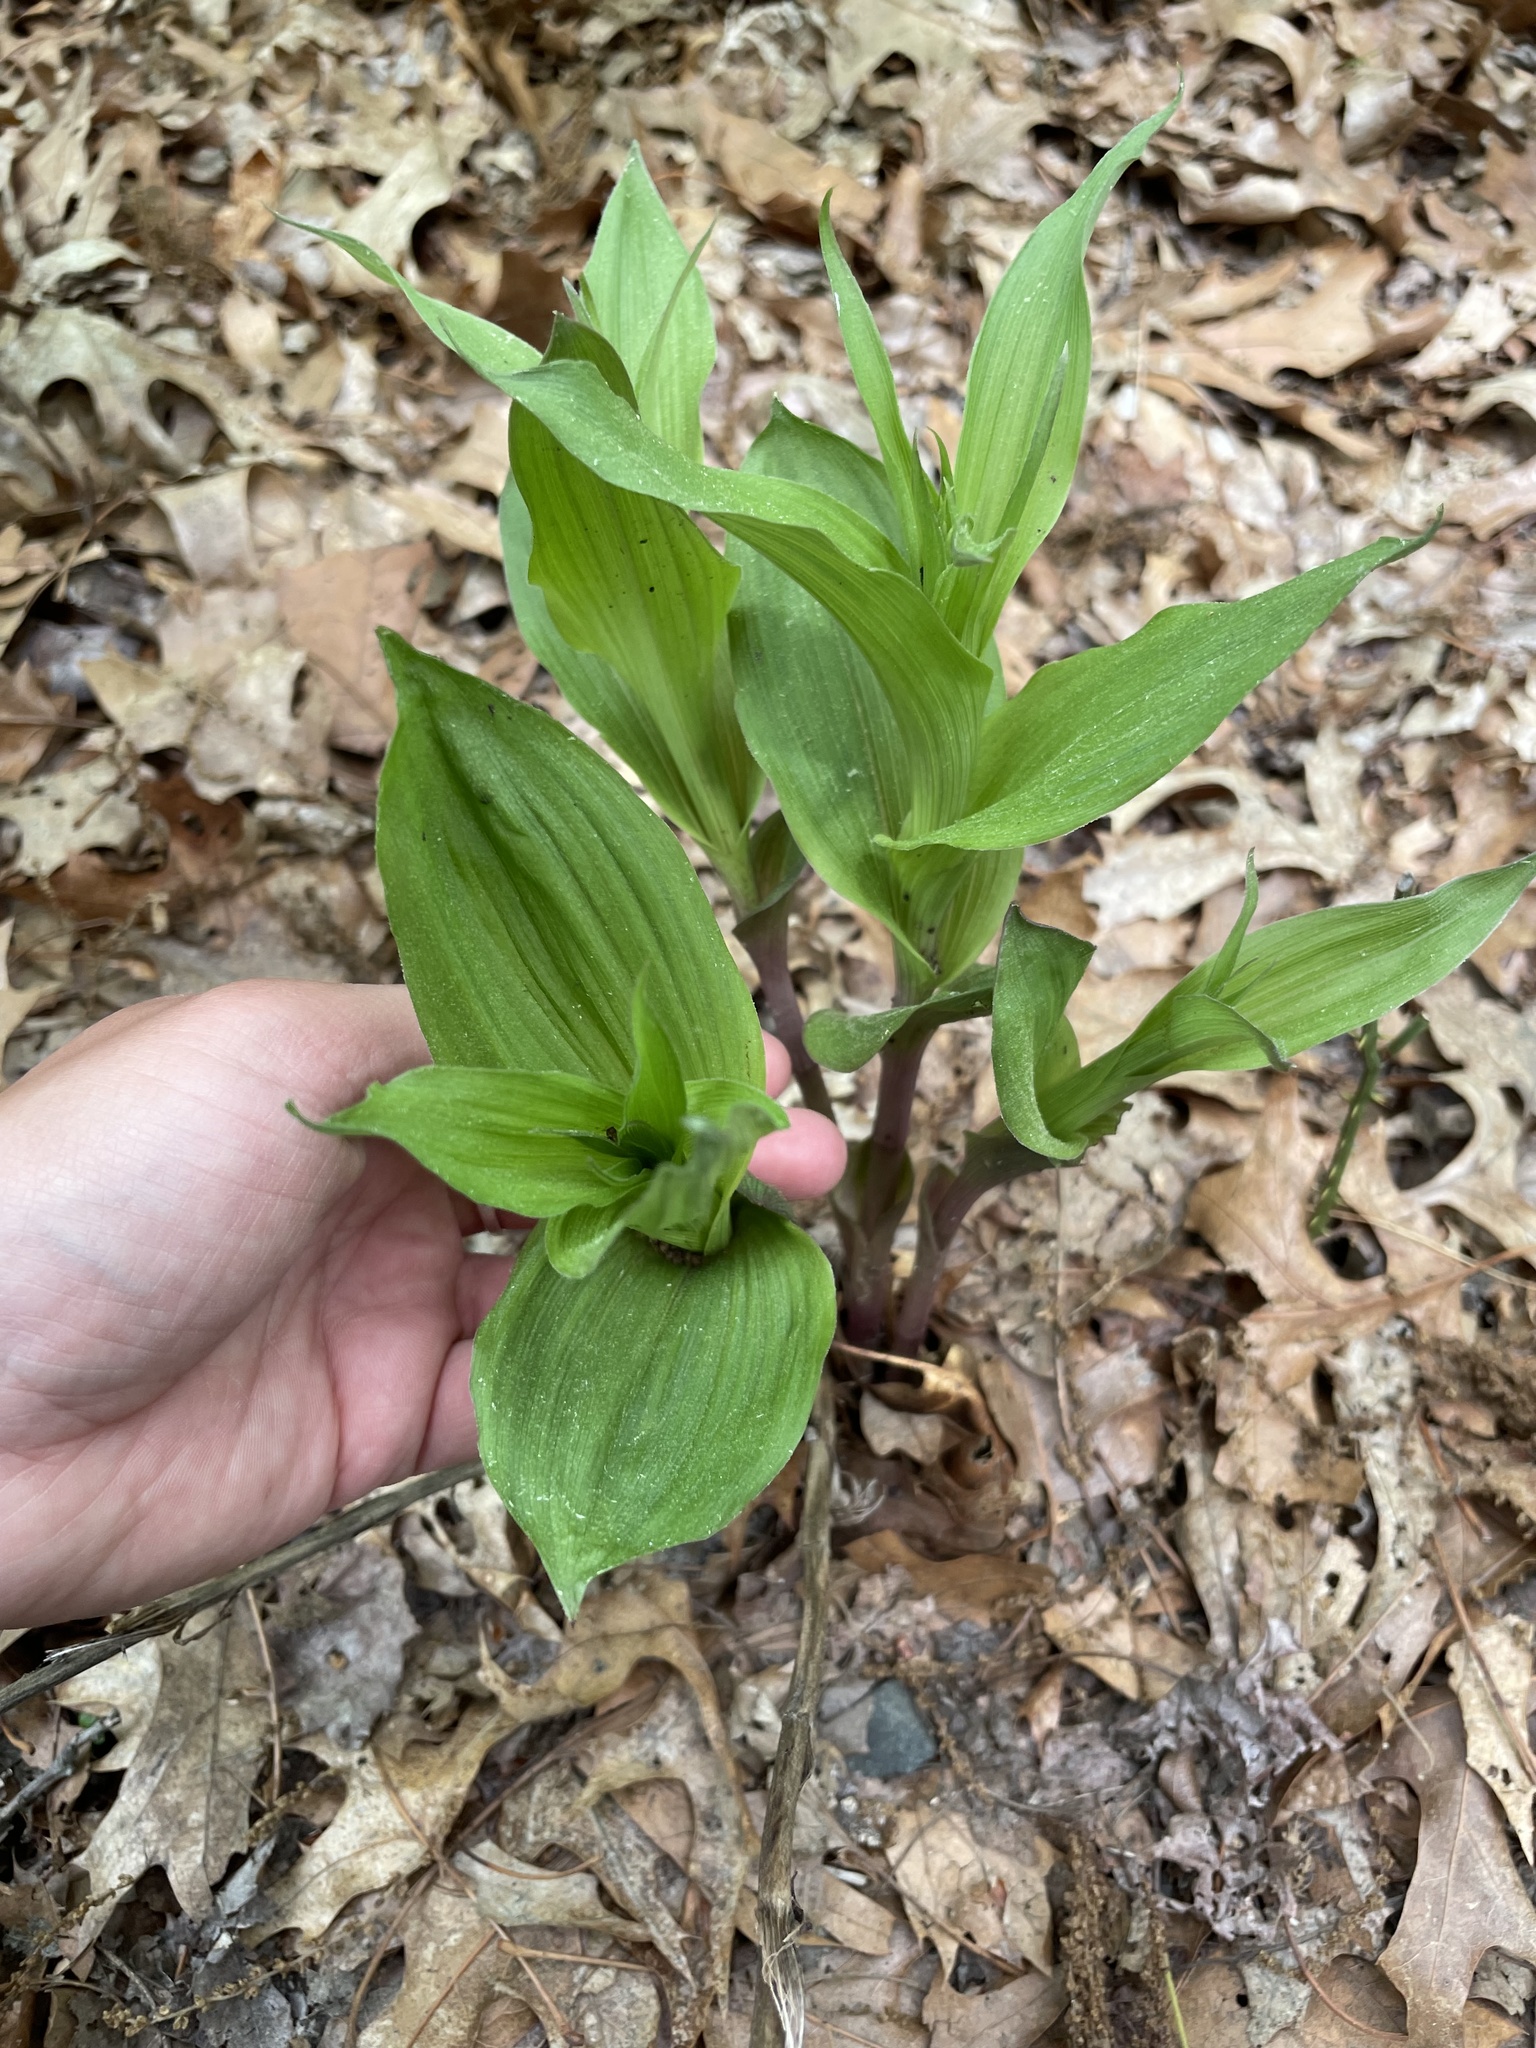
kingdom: Plantae
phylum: Tracheophyta
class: Liliopsida
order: Asparagales
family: Orchidaceae
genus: Epipactis
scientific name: Epipactis helleborine
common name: Broad-leaved helleborine
